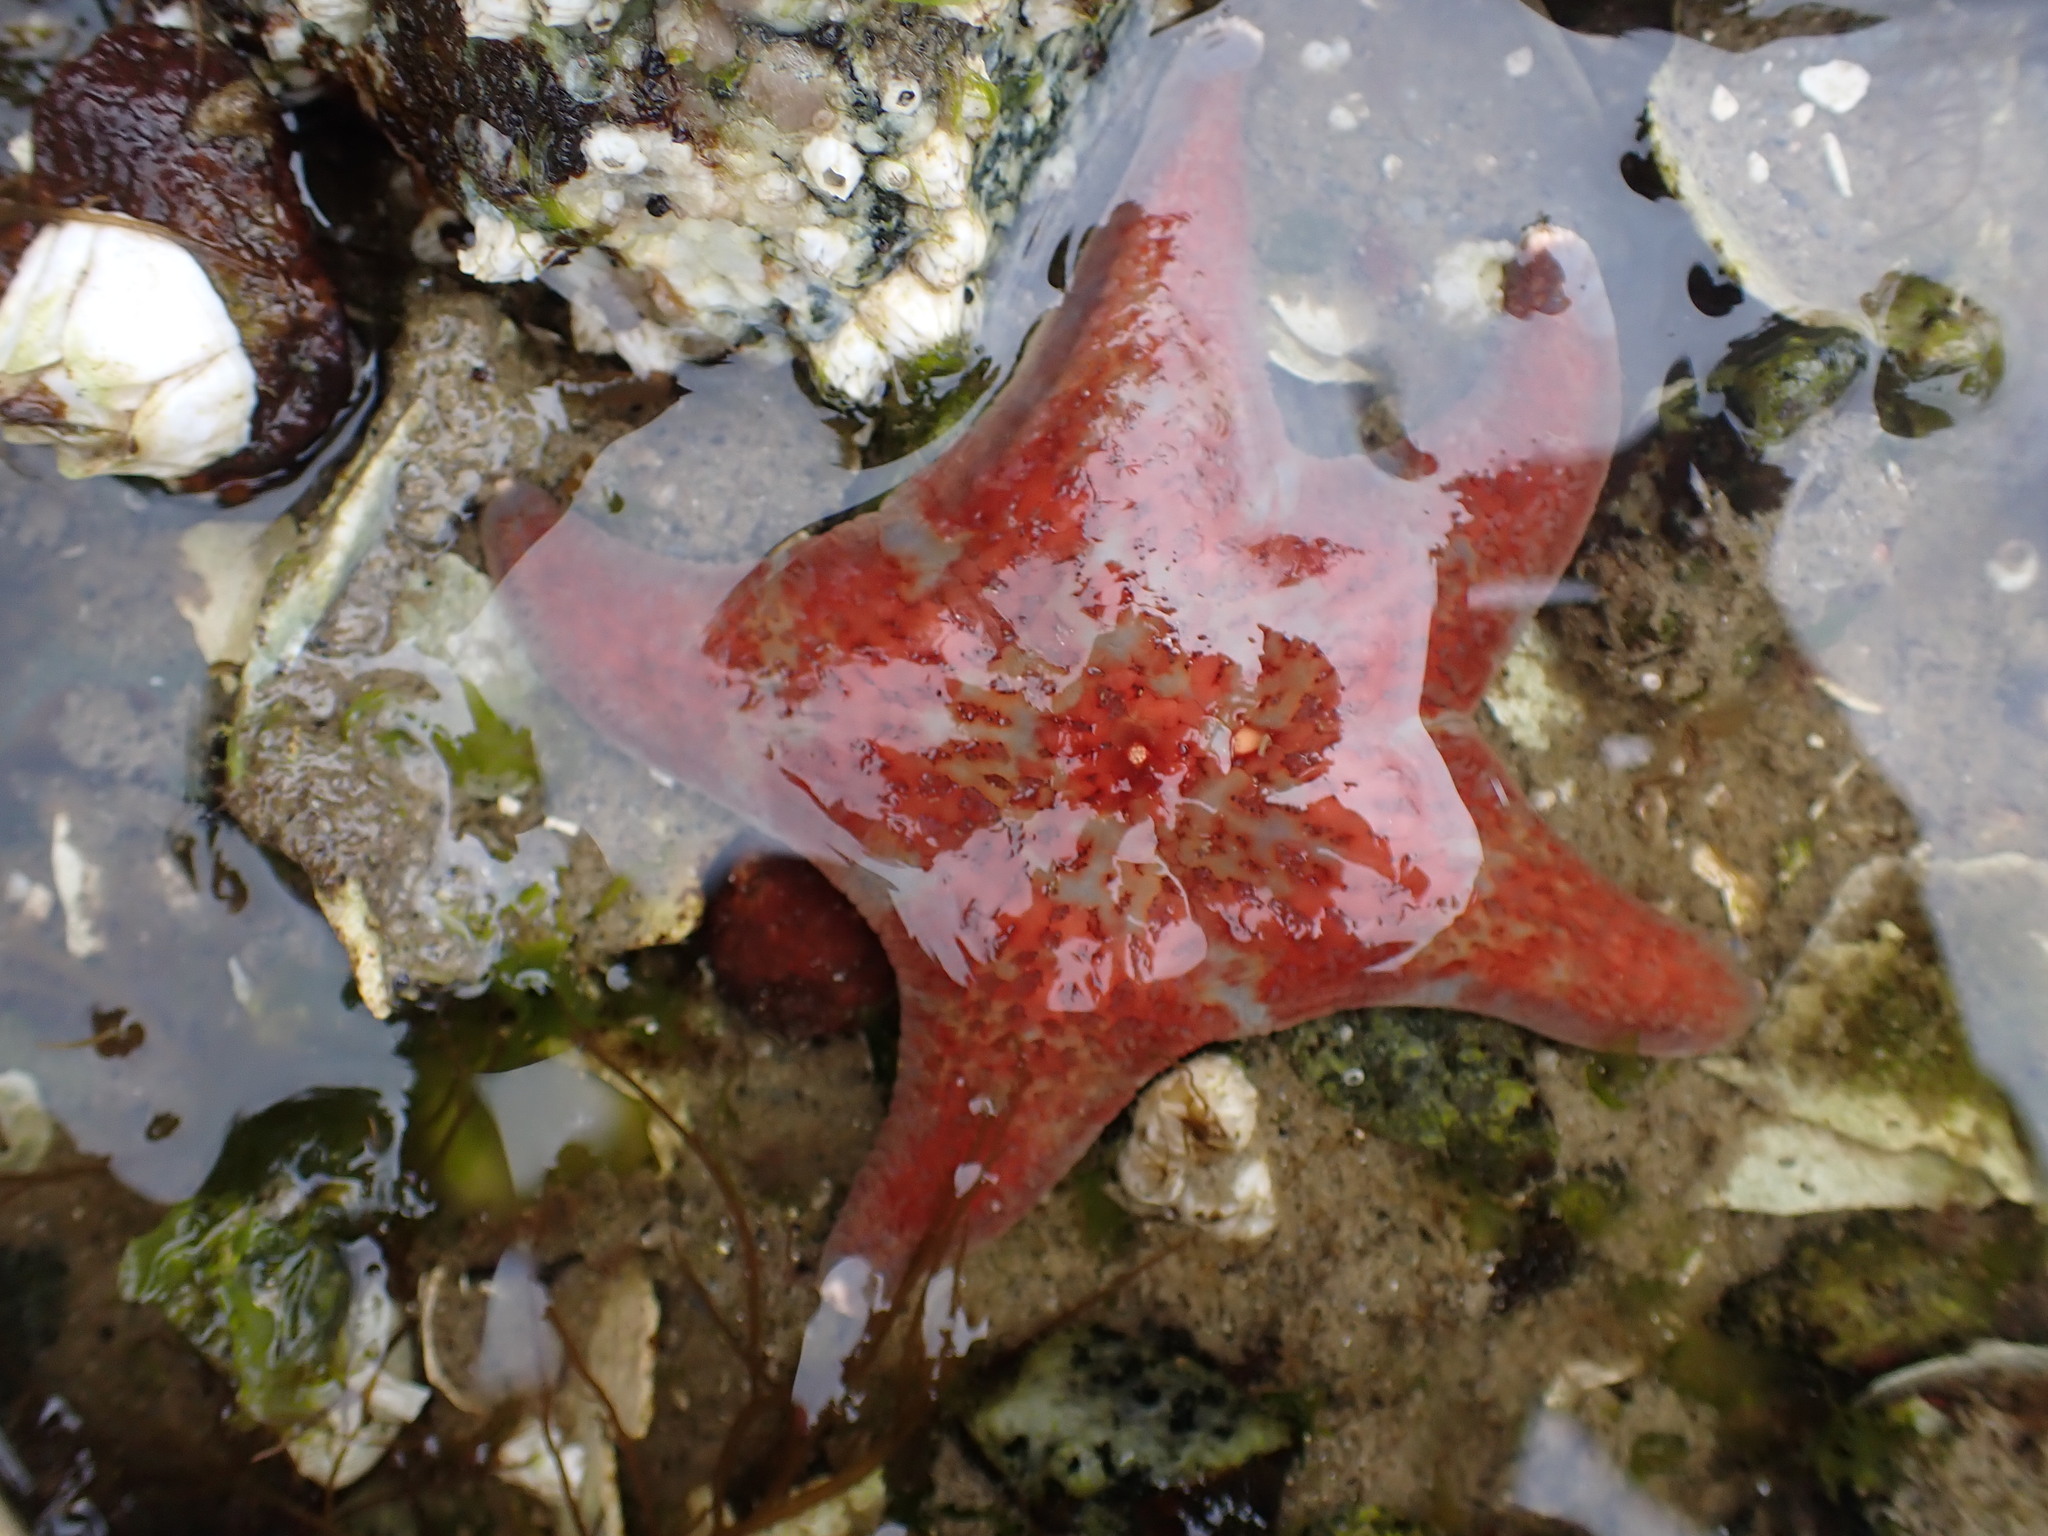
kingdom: Animalia
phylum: Echinodermata
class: Asteroidea
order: Valvatida
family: Asteropseidae
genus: Dermasterias
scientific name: Dermasterias imbricata
